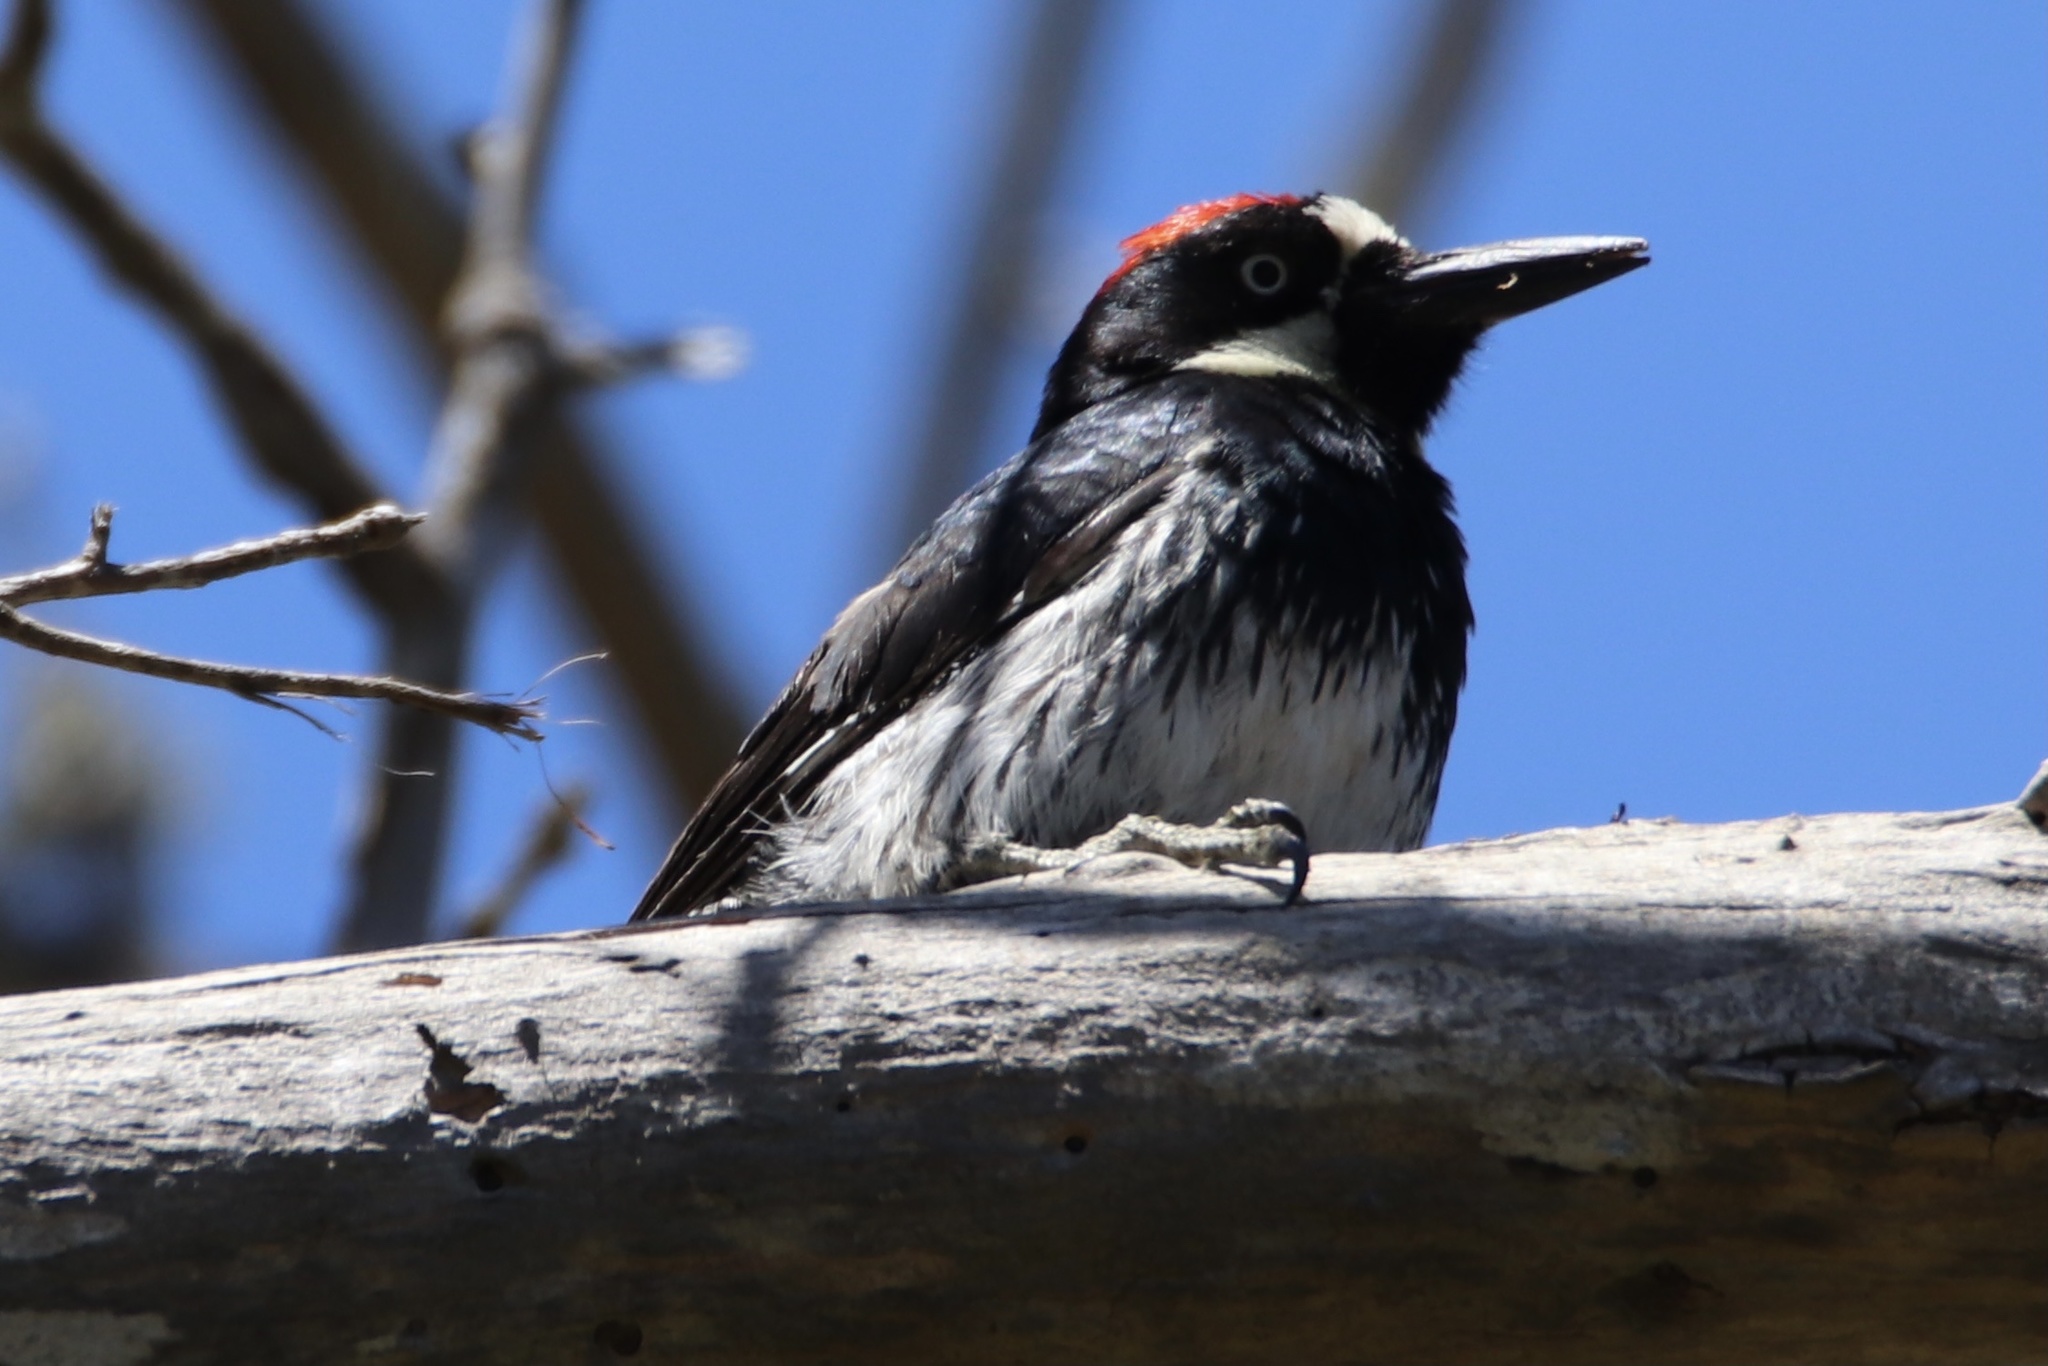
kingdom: Animalia
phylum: Chordata
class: Aves
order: Piciformes
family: Picidae
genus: Melanerpes
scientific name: Melanerpes formicivorus
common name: Acorn woodpecker
